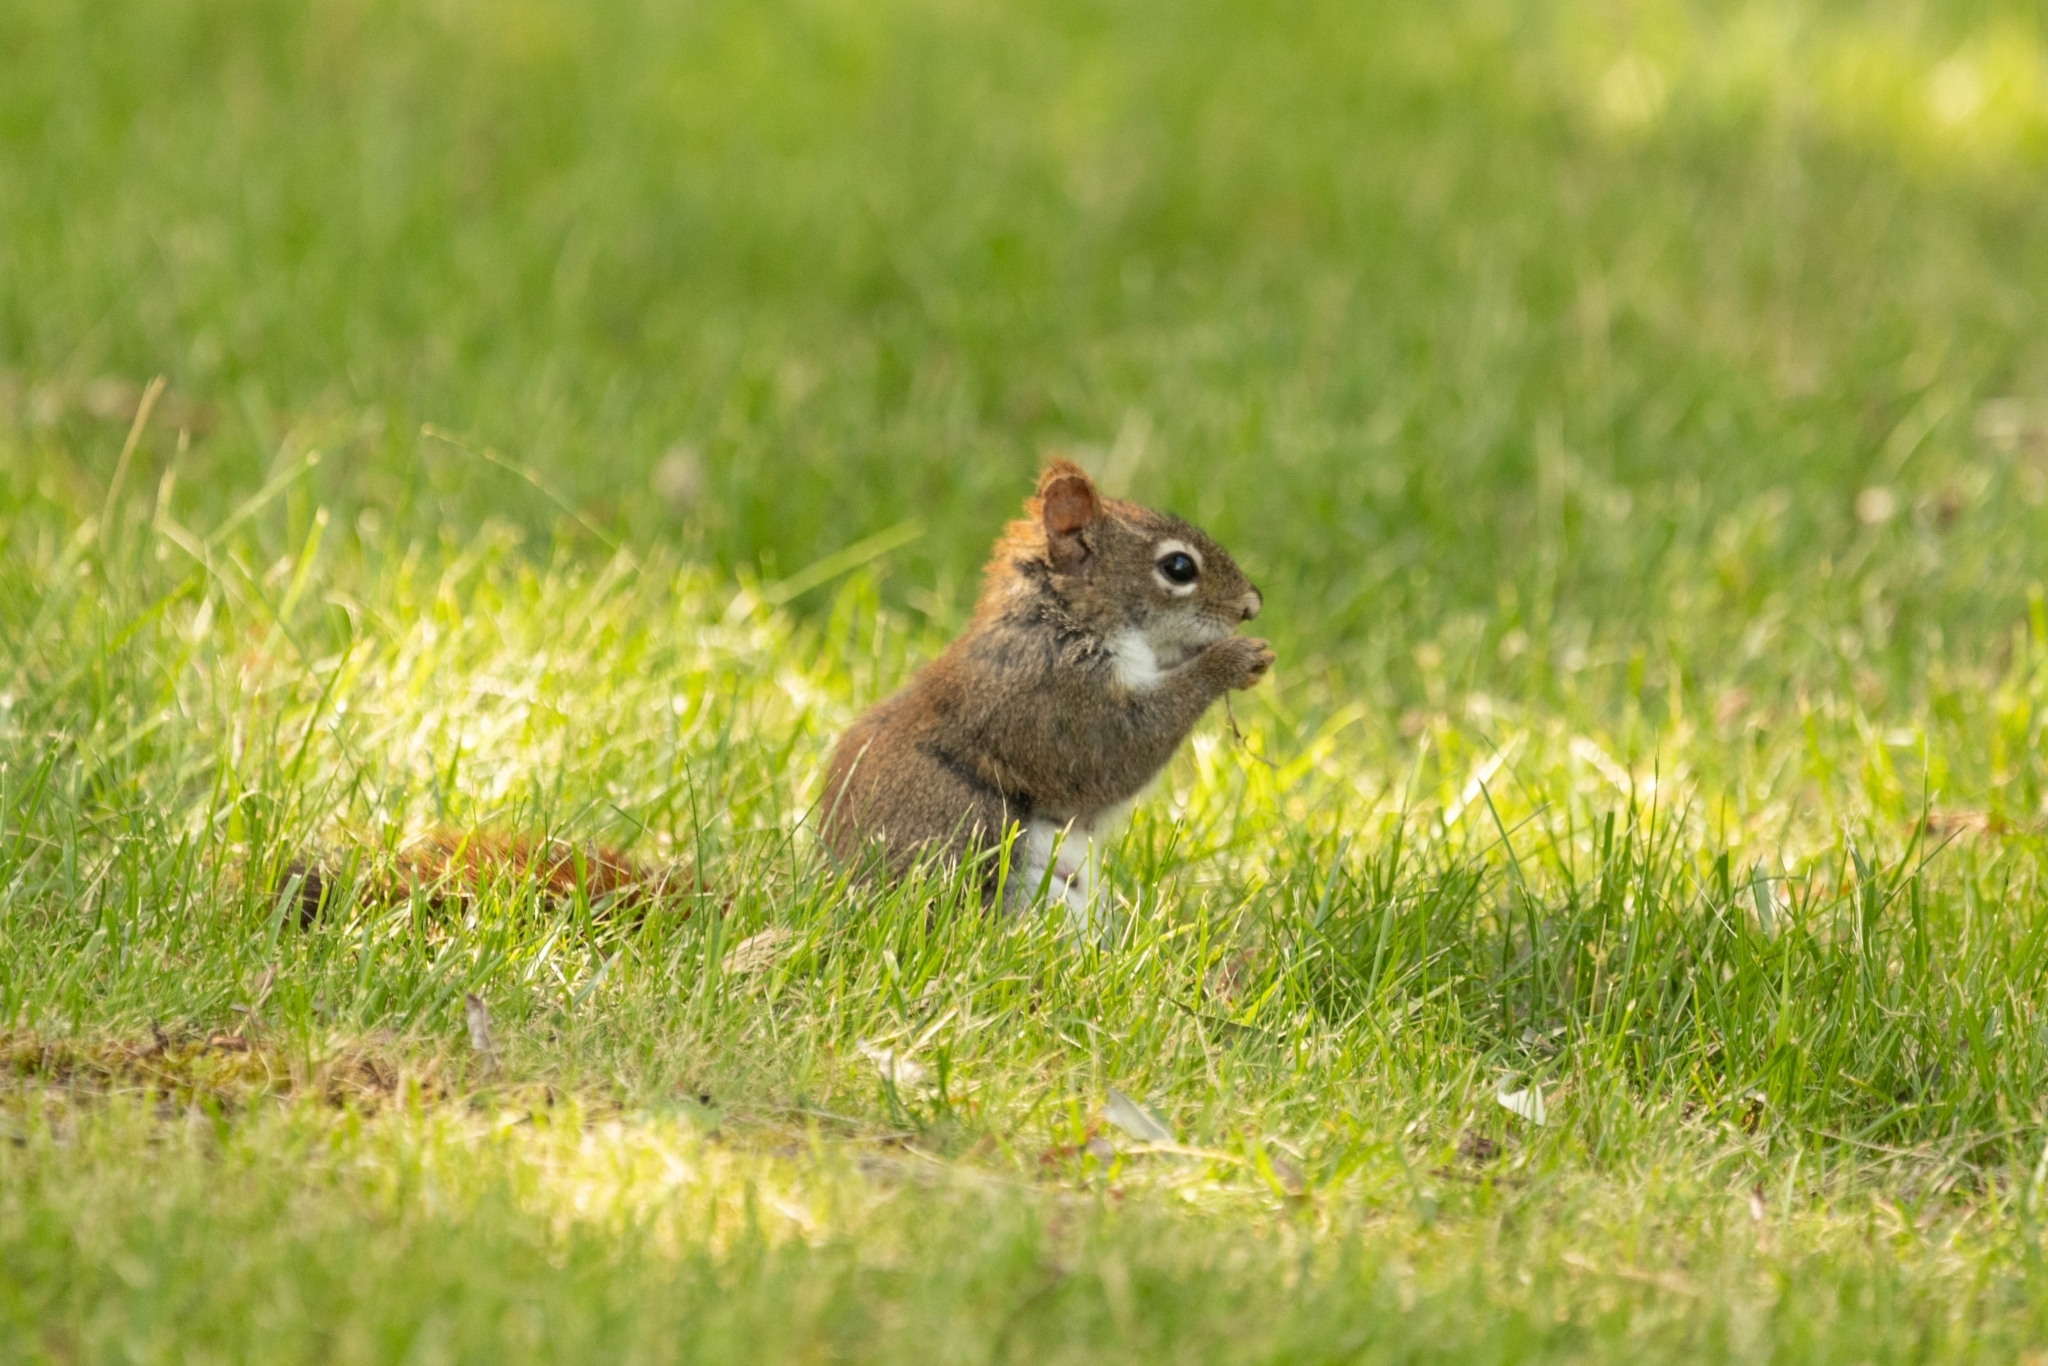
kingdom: Animalia
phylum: Chordata
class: Mammalia
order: Rodentia
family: Sciuridae
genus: Tamiasciurus
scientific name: Tamiasciurus hudsonicus
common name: Red squirrel
